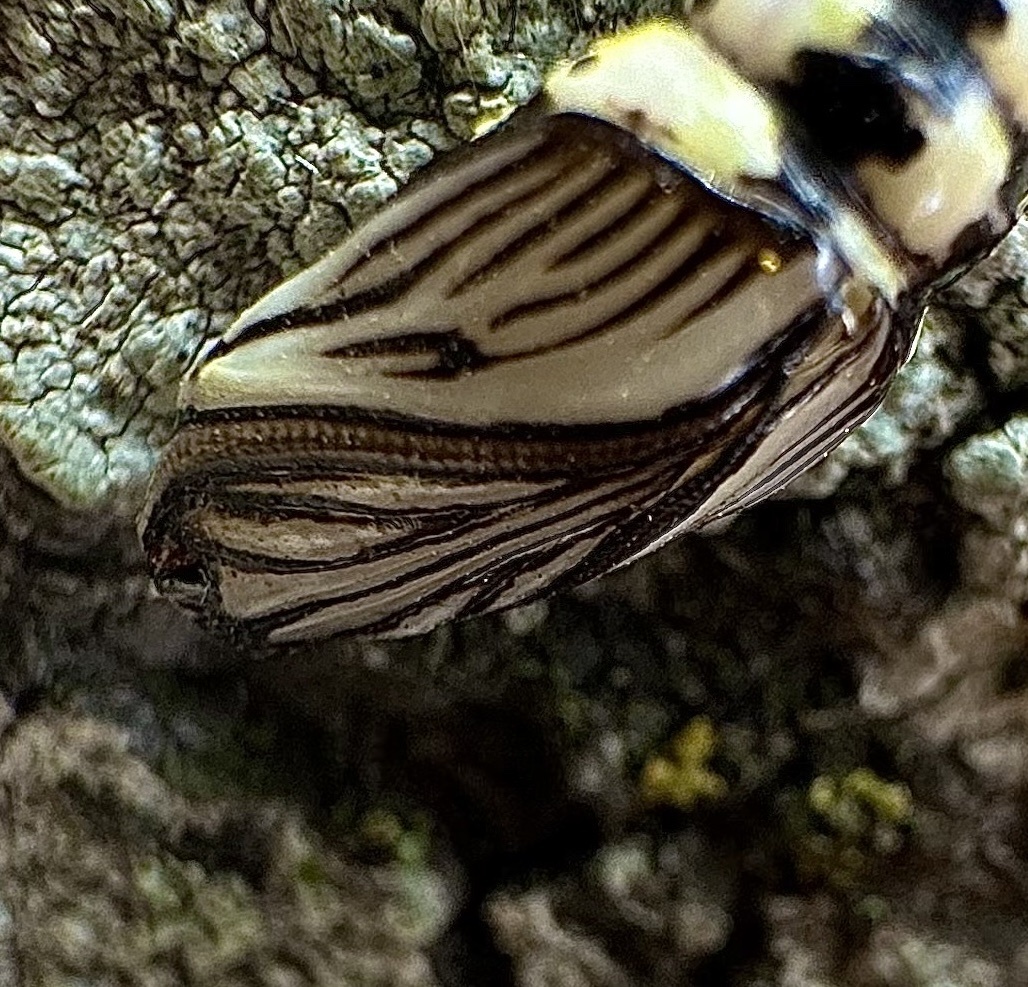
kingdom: Animalia
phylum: Arthropoda
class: Insecta
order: Lepidoptera
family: Notodontidae
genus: Phryganidia
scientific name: Phryganidia californica
